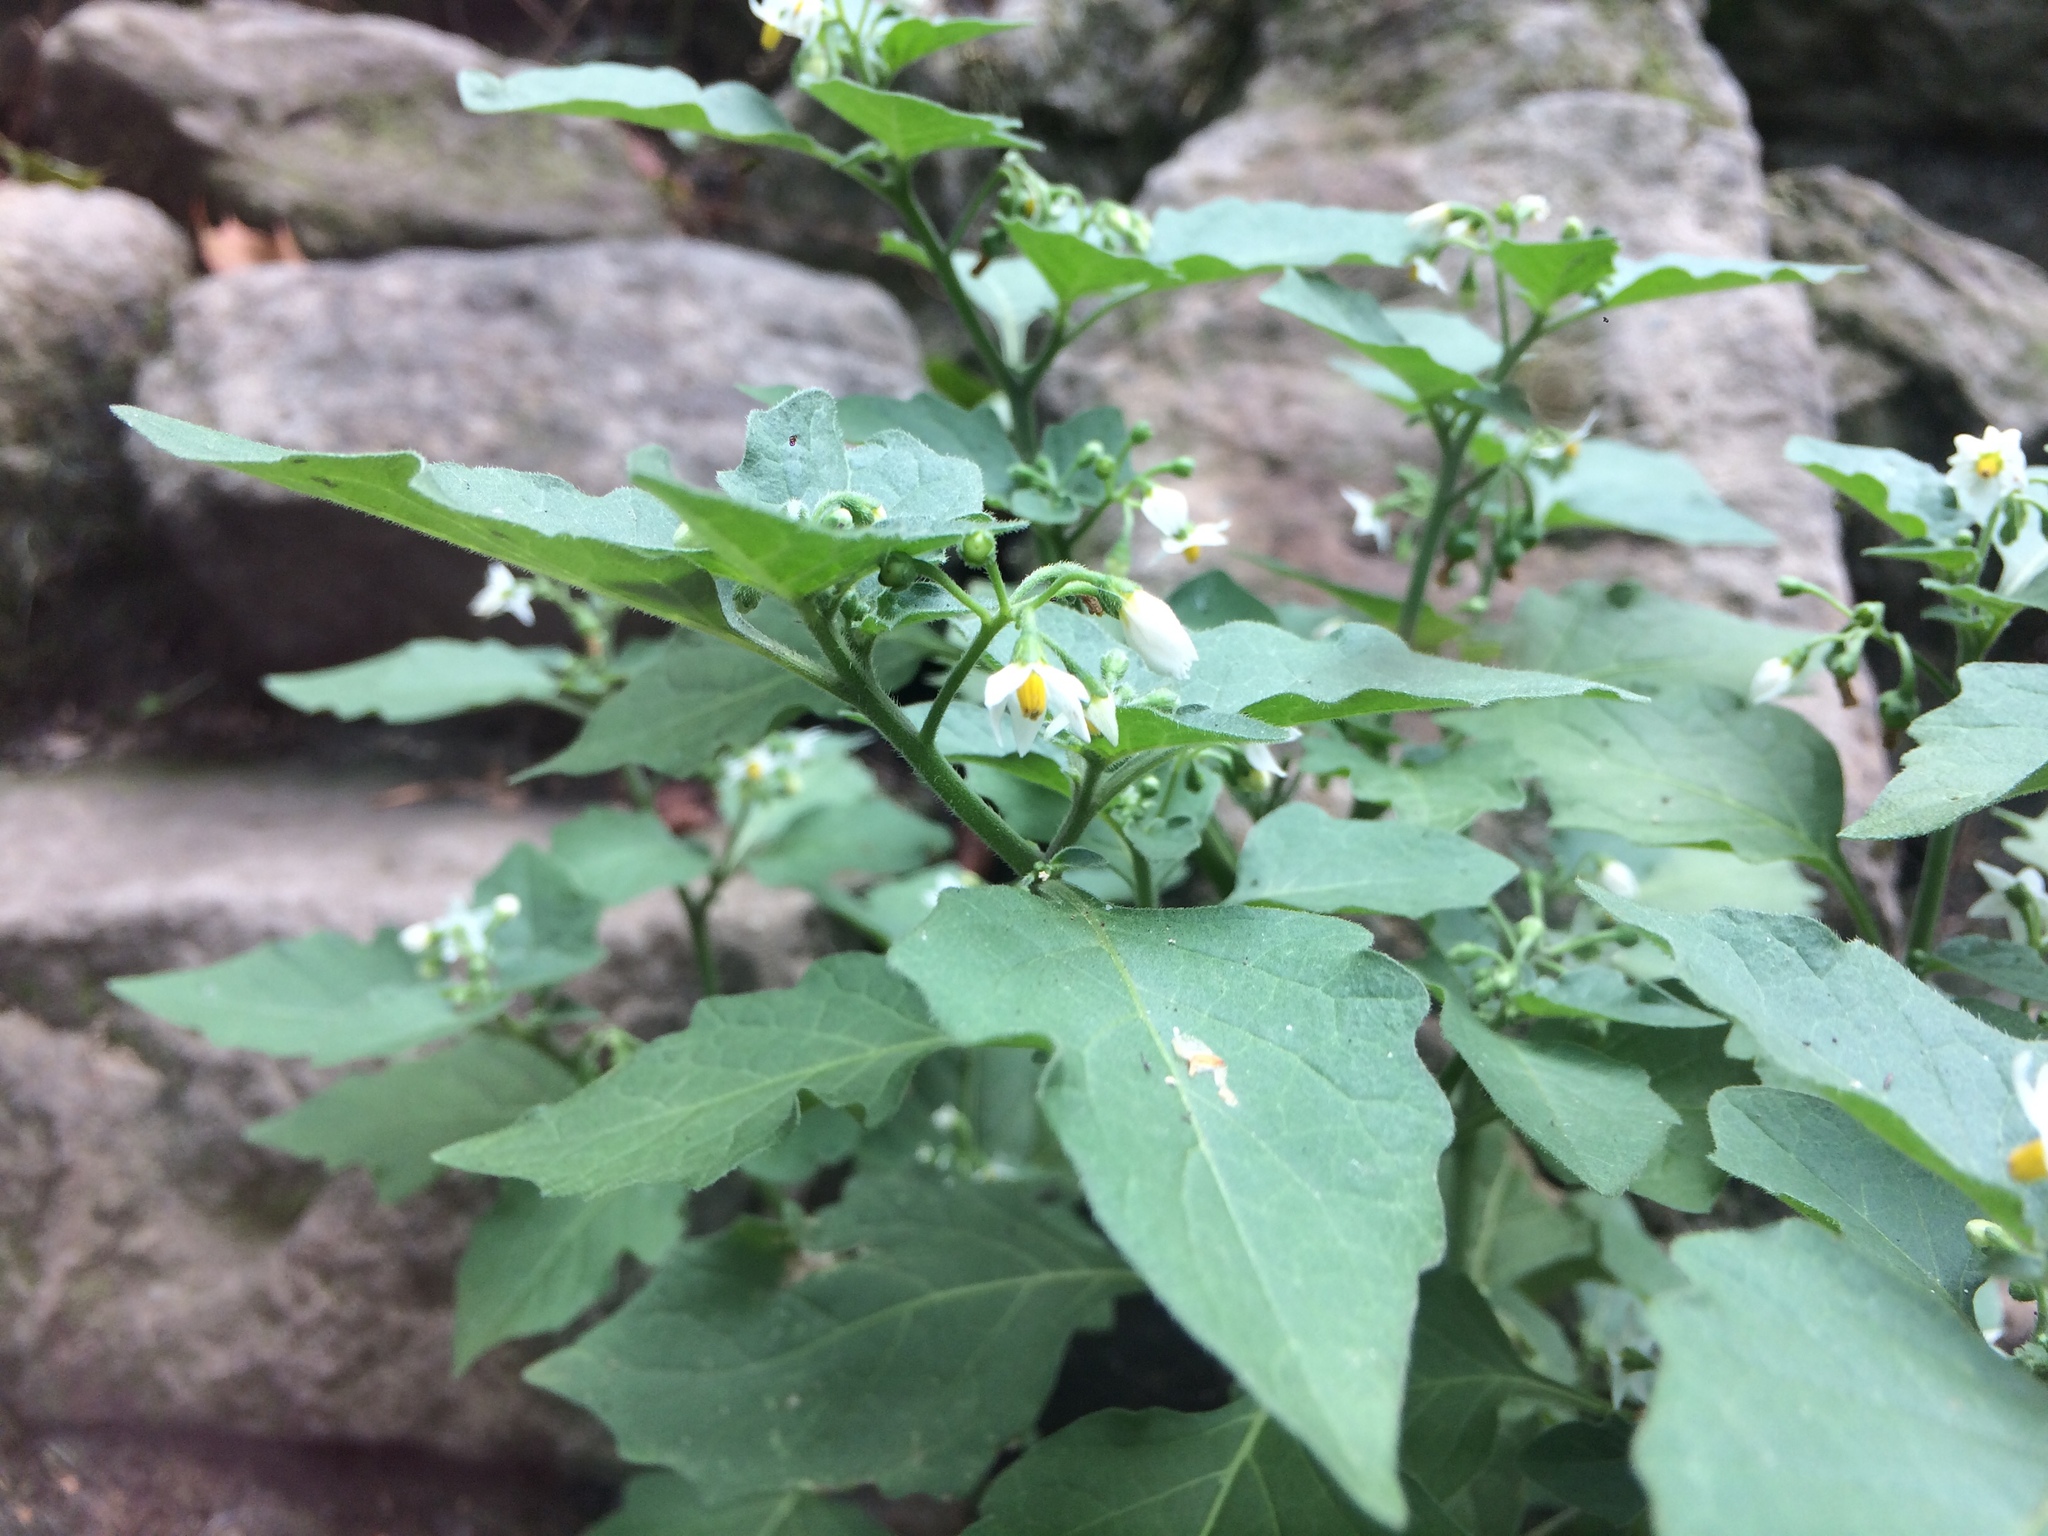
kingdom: Plantae
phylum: Tracheophyta
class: Magnoliopsida
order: Solanales
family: Solanaceae
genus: Solanum
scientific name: Solanum nigrum
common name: Black nightshade
